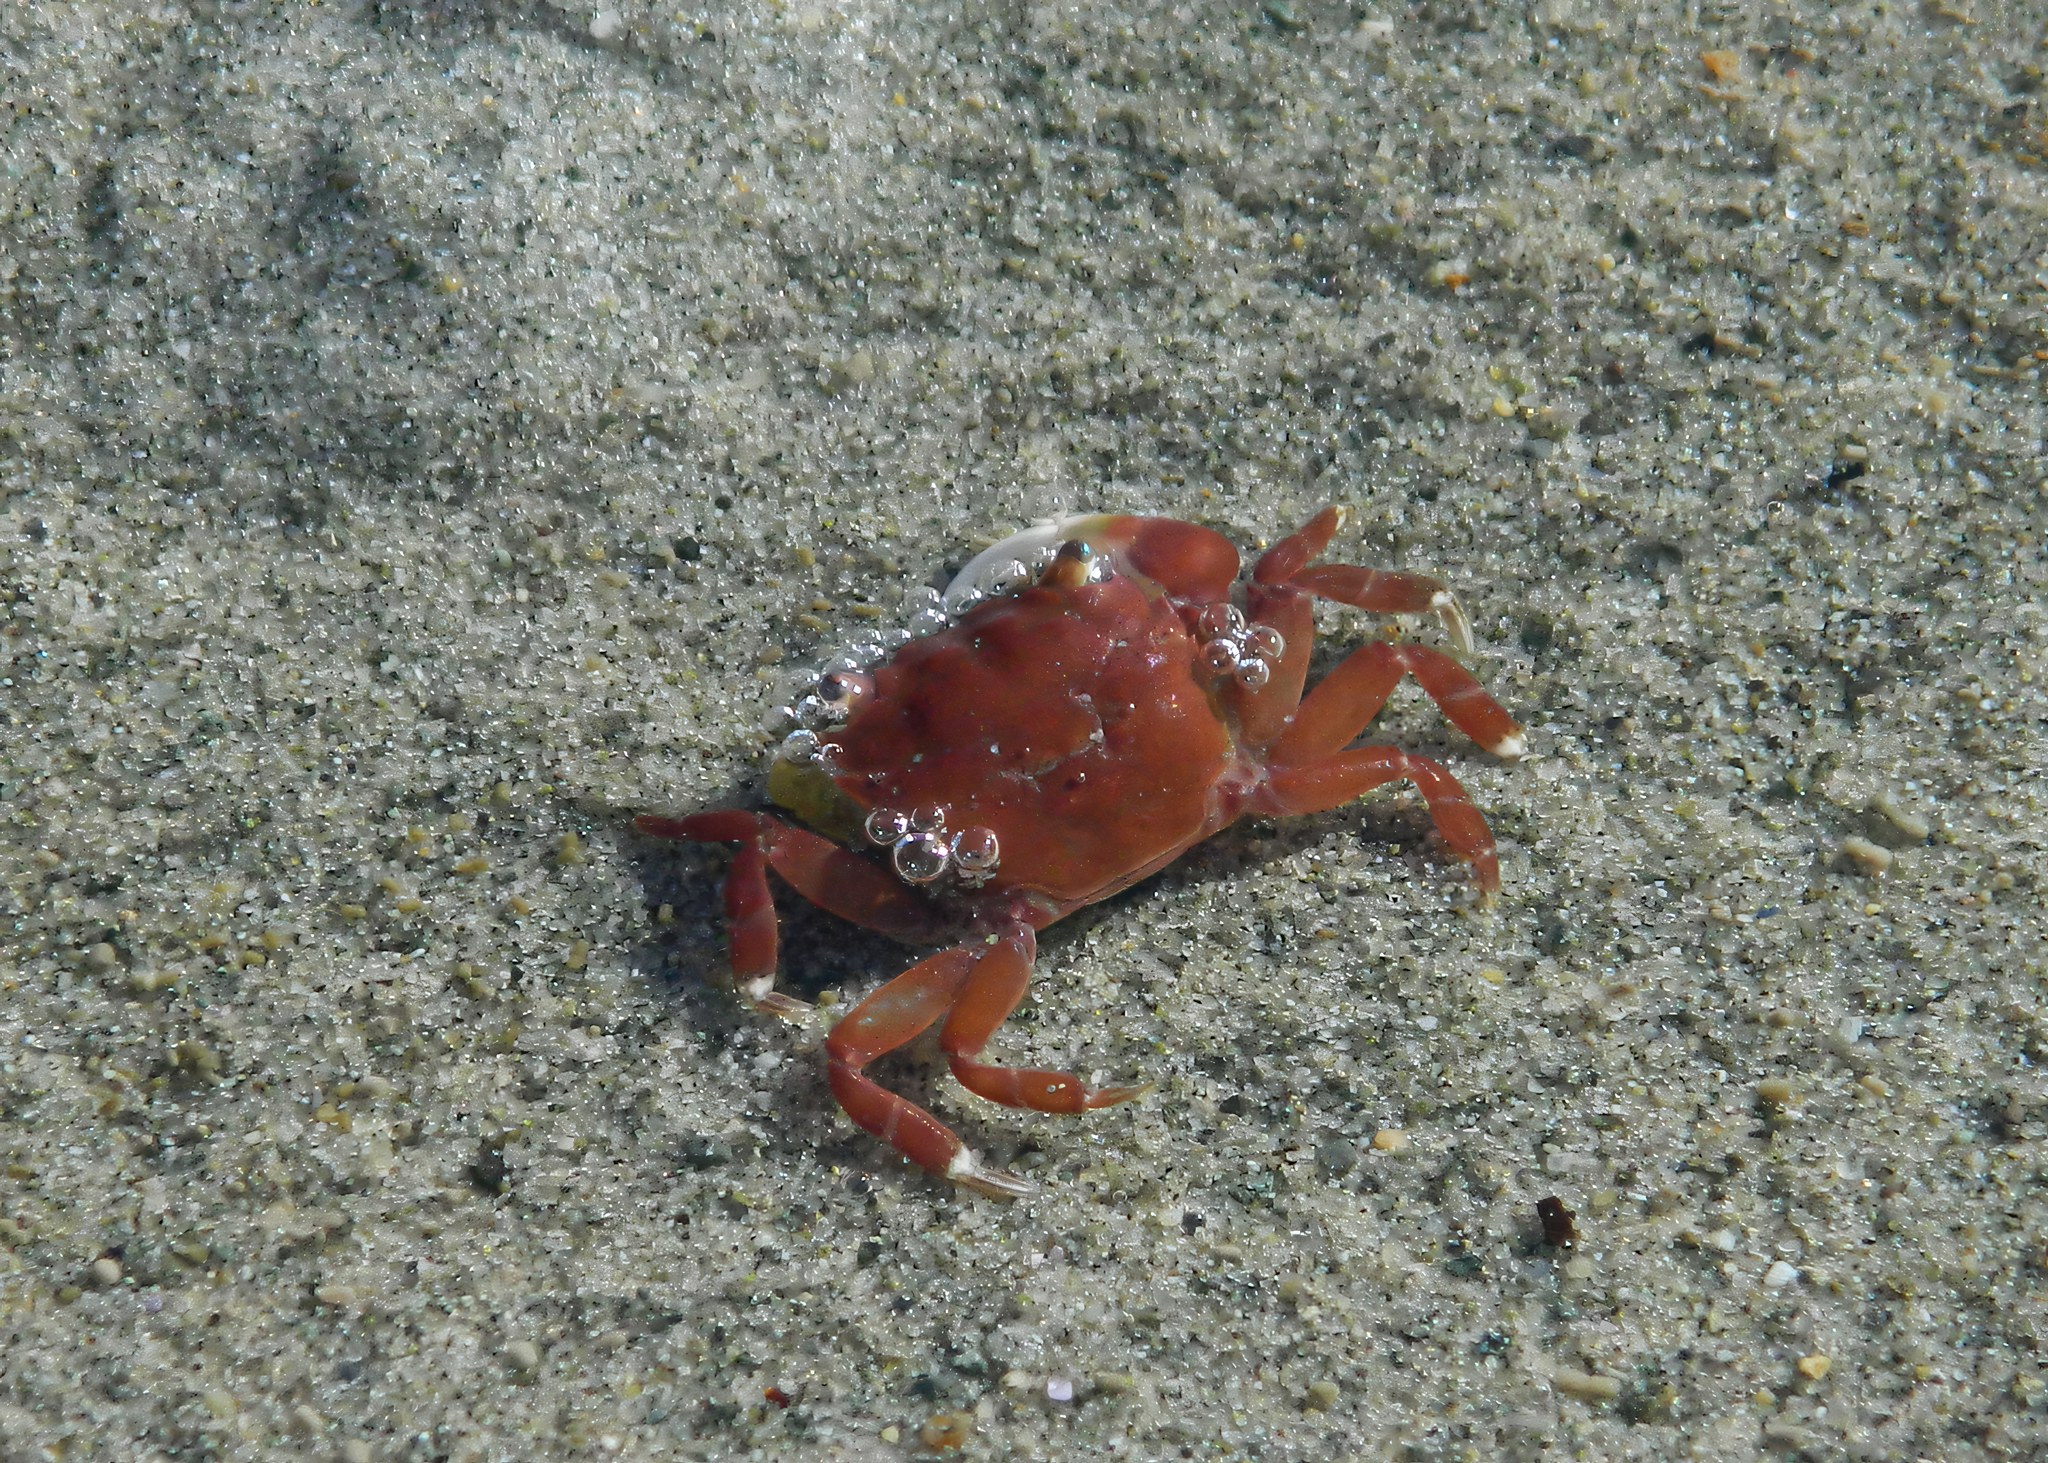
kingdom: Animalia
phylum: Arthropoda
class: Malacostraca
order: Decapoda
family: Varunidae
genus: Hemigrapsus
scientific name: Hemigrapsus oregonensis
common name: Yellow shore crab
